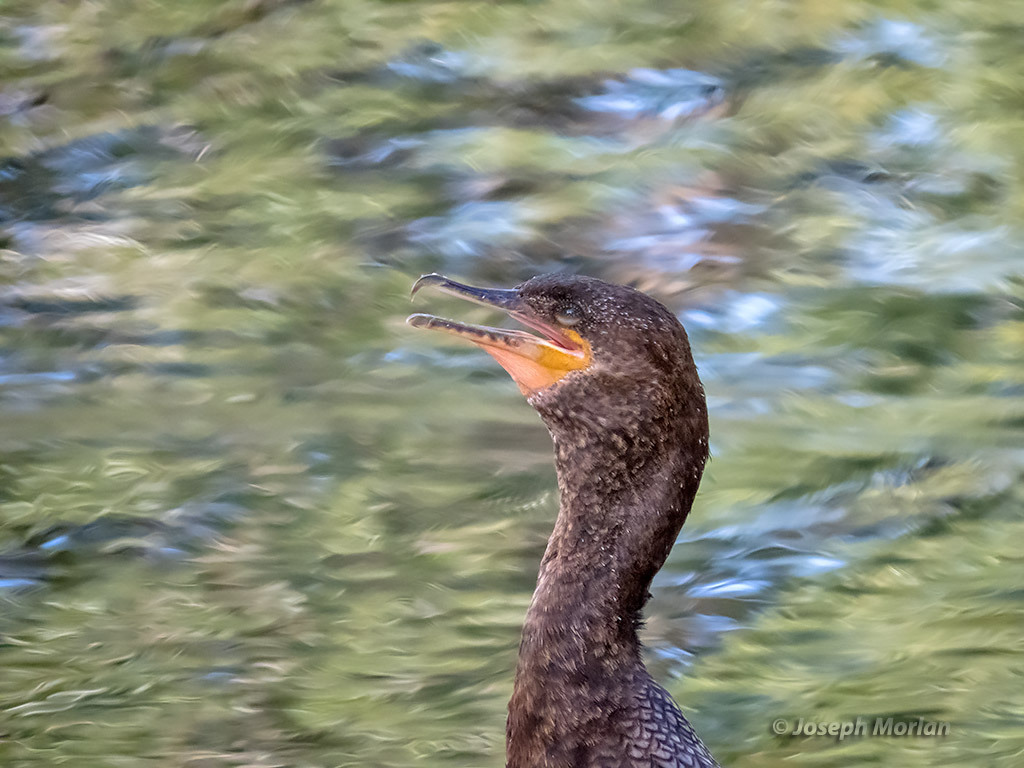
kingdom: Animalia
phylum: Chordata
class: Aves
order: Suliformes
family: Phalacrocoracidae
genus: Phalacrocorax
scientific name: Phalacrocorax brasilianus
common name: Neotropic cormorant
